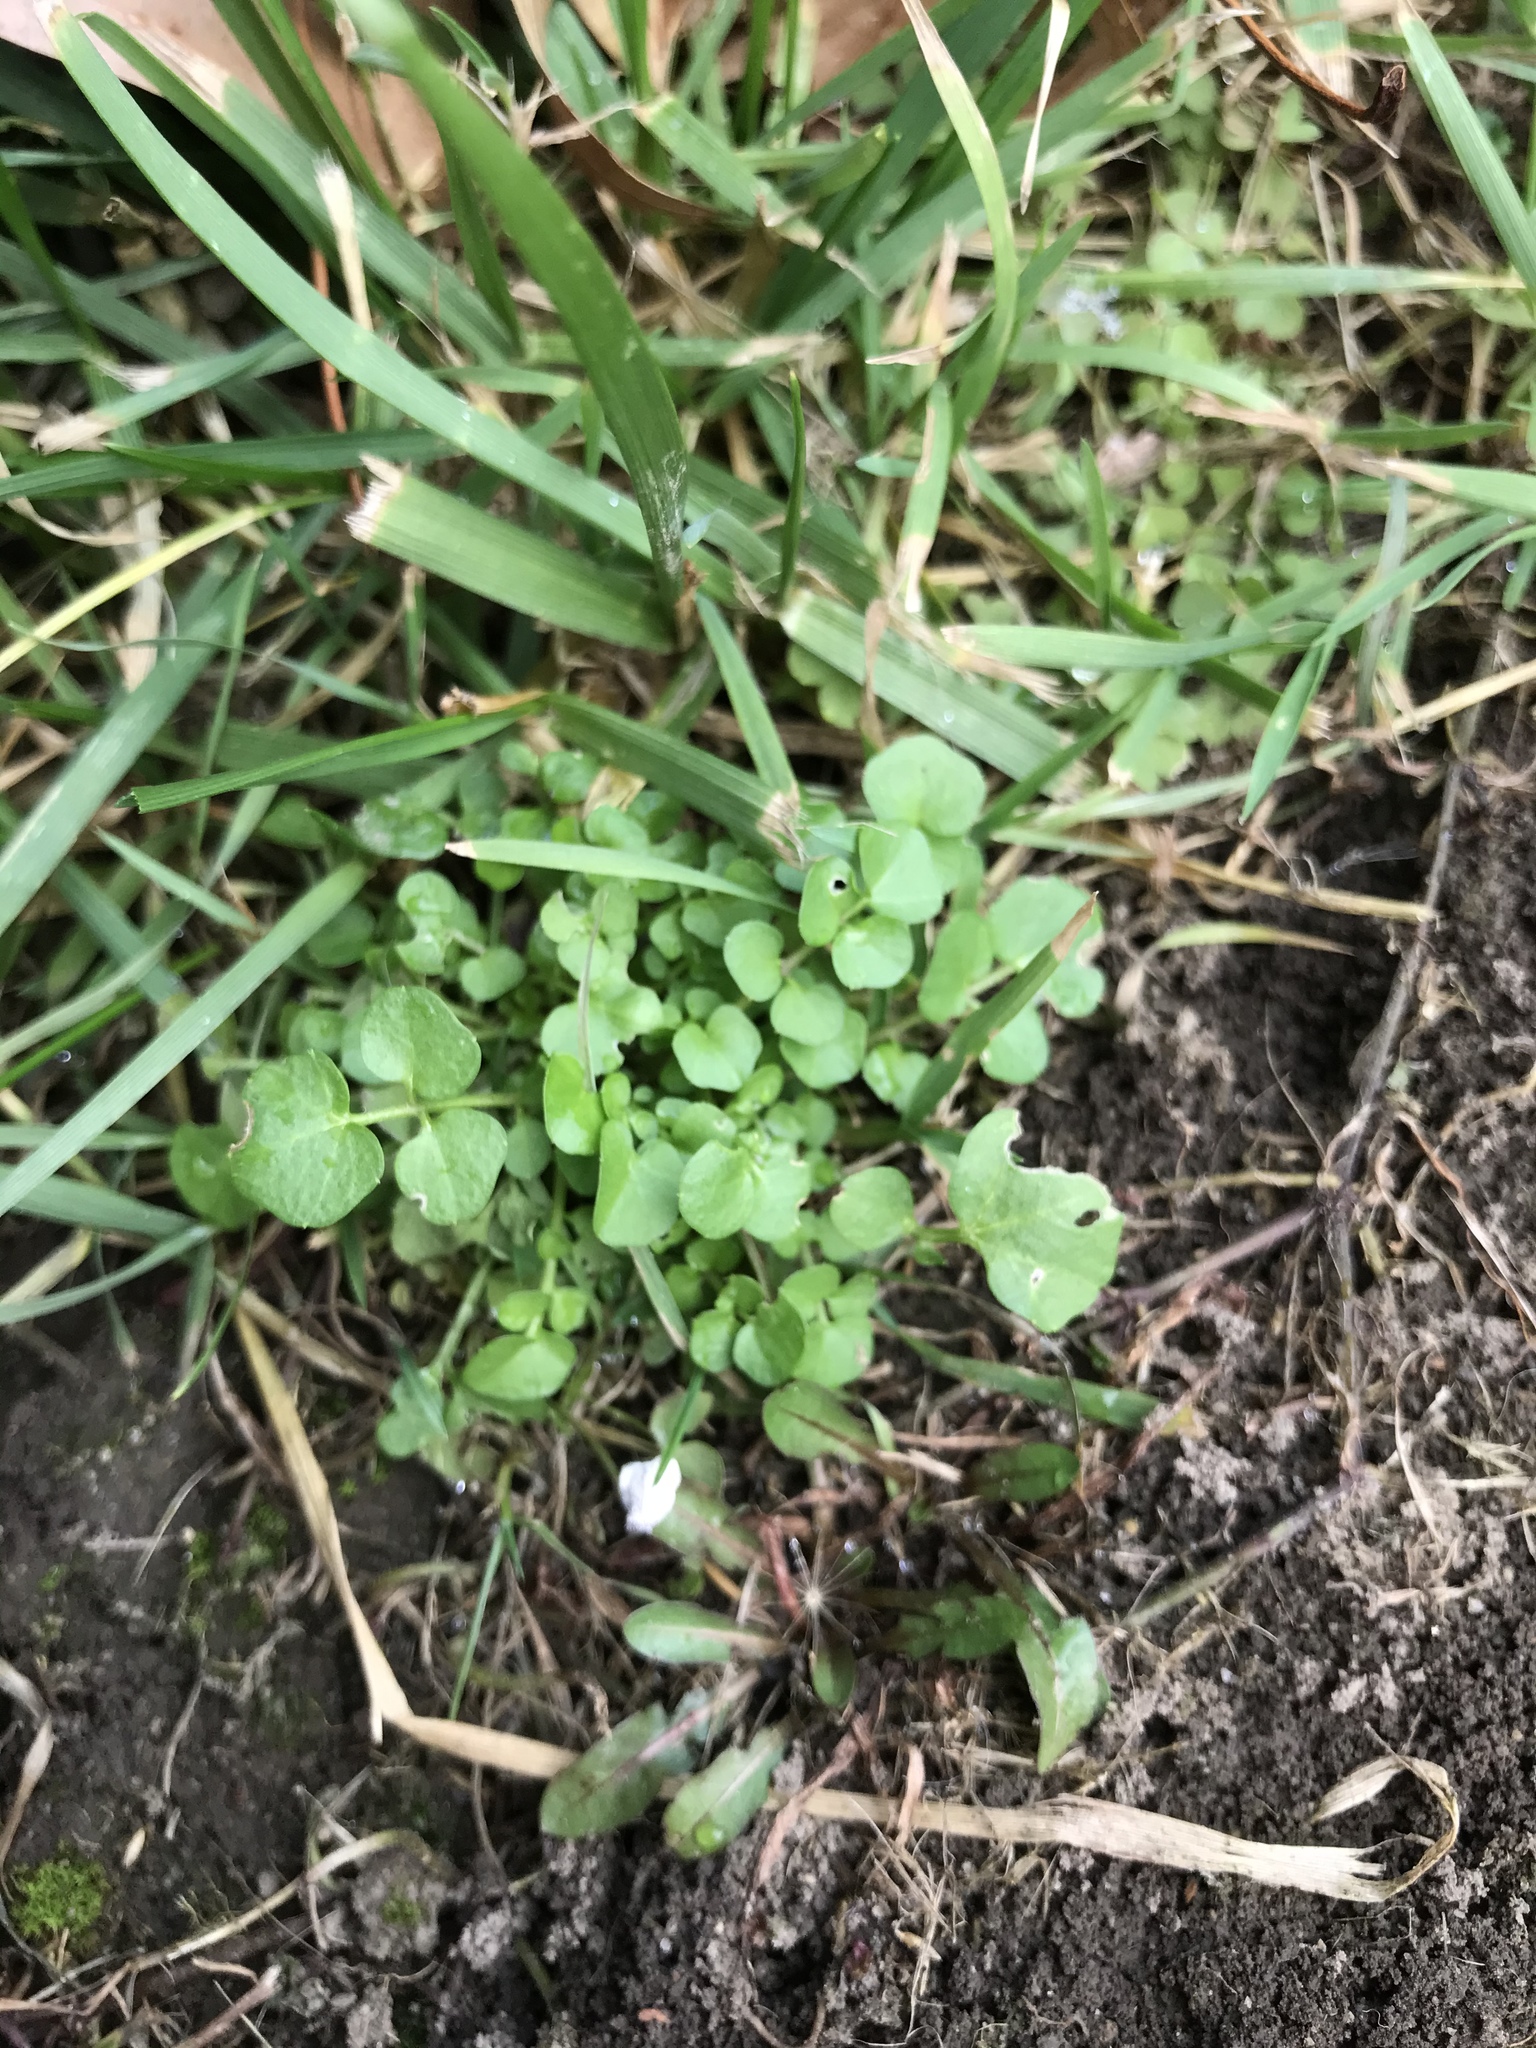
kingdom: Plantae
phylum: Tracheophyta
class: Magnoliopsida
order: Brassicales
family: Brassicaceae
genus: Cardamine
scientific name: Cardamine hirsuta
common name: Hairy bittercress
